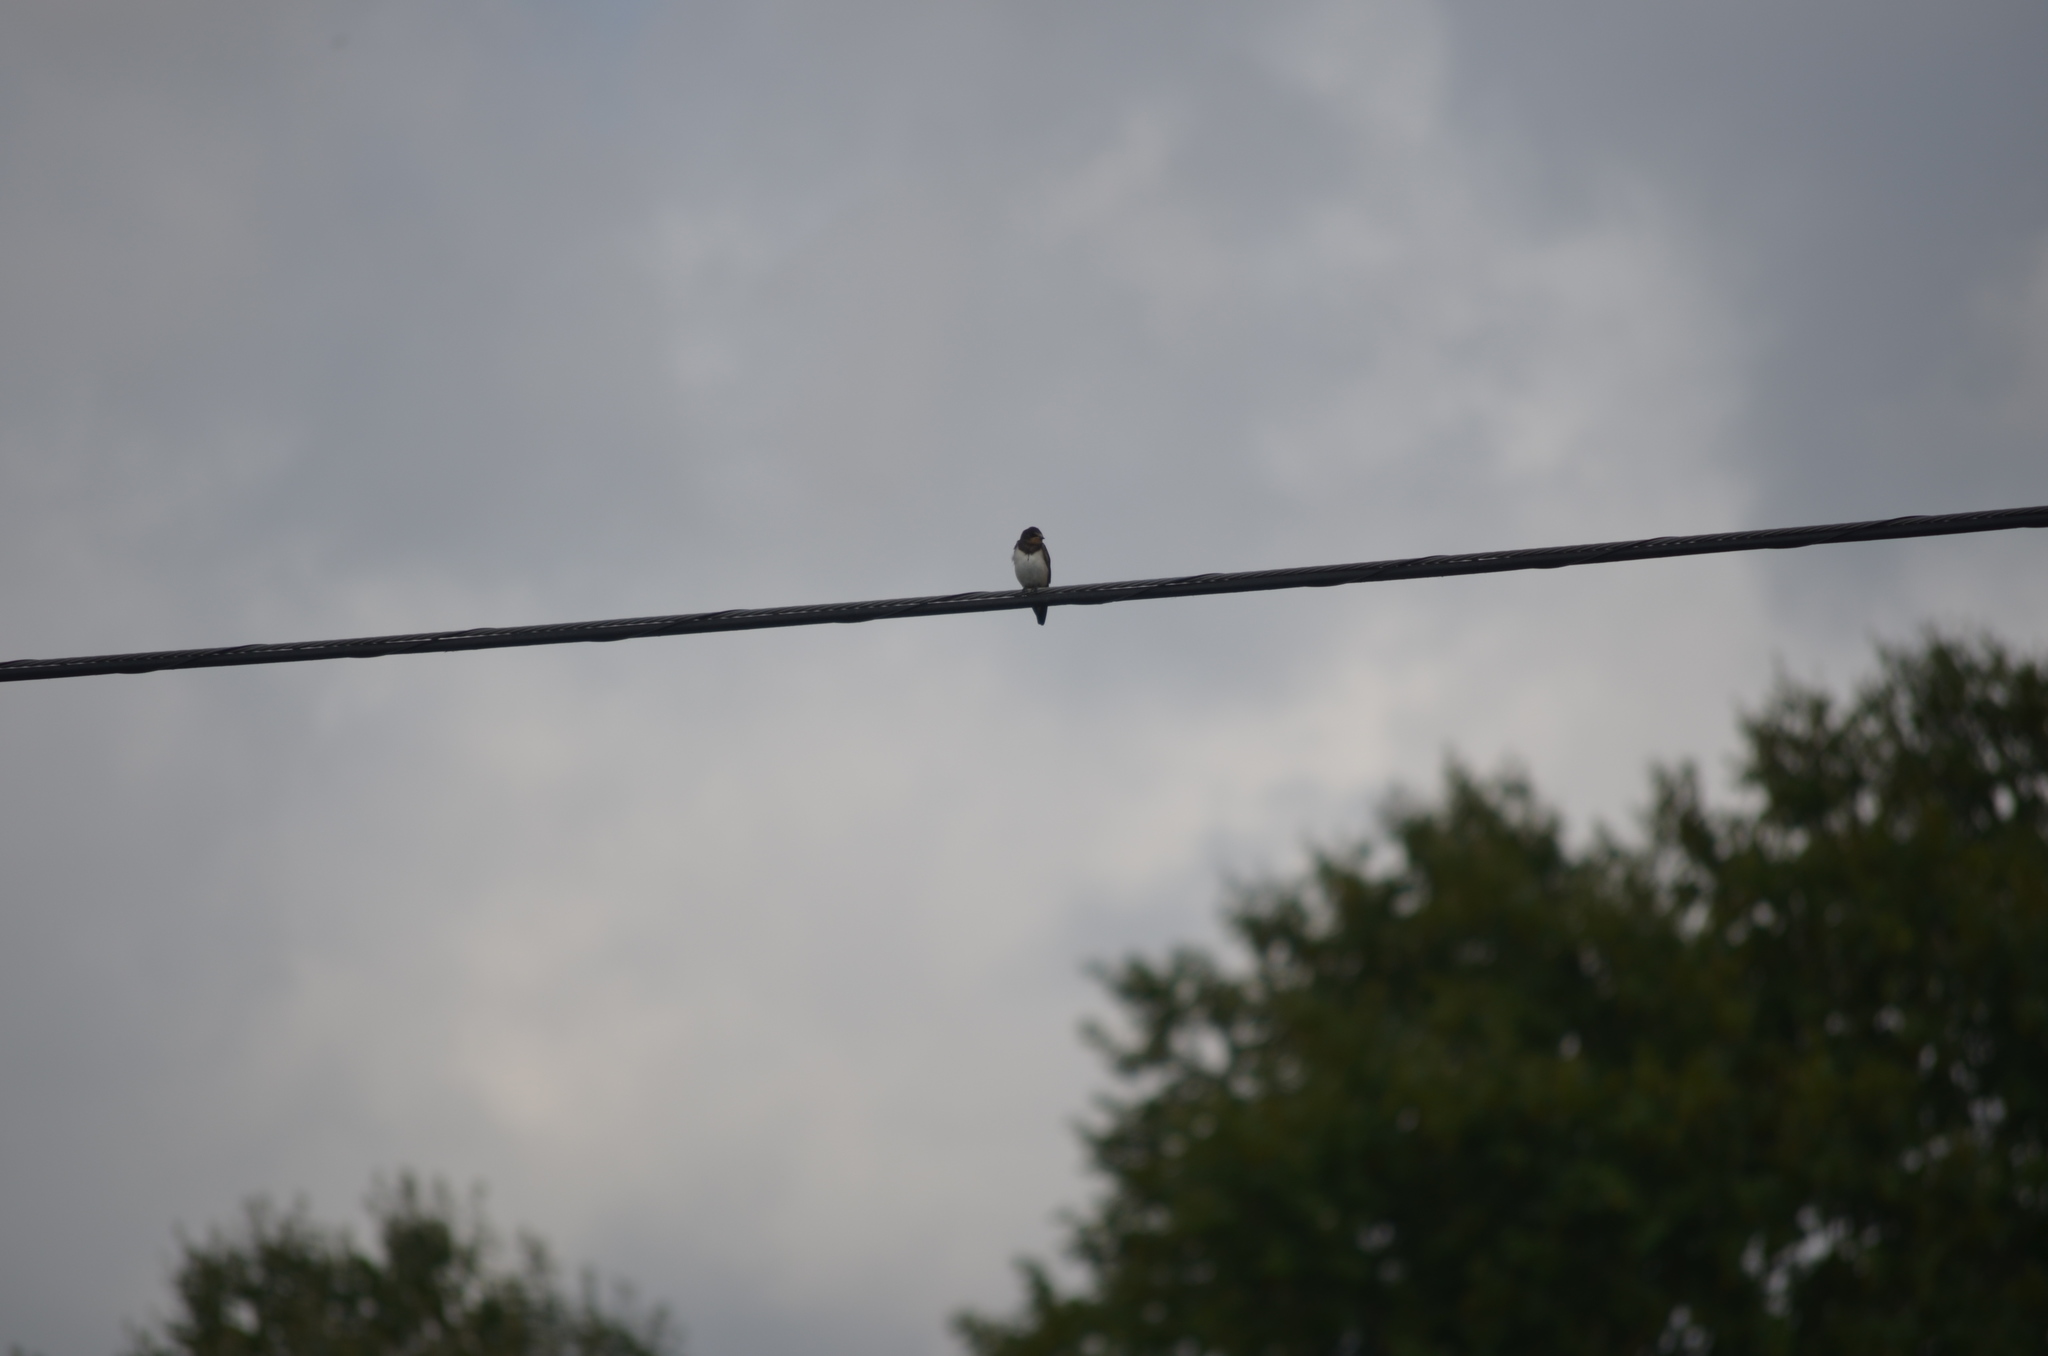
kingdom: Animalia
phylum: Chordata
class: Aves
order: Passeriformes
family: Hirundinidae
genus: Hirundo
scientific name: Hirundo rustica
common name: Barn swallow
